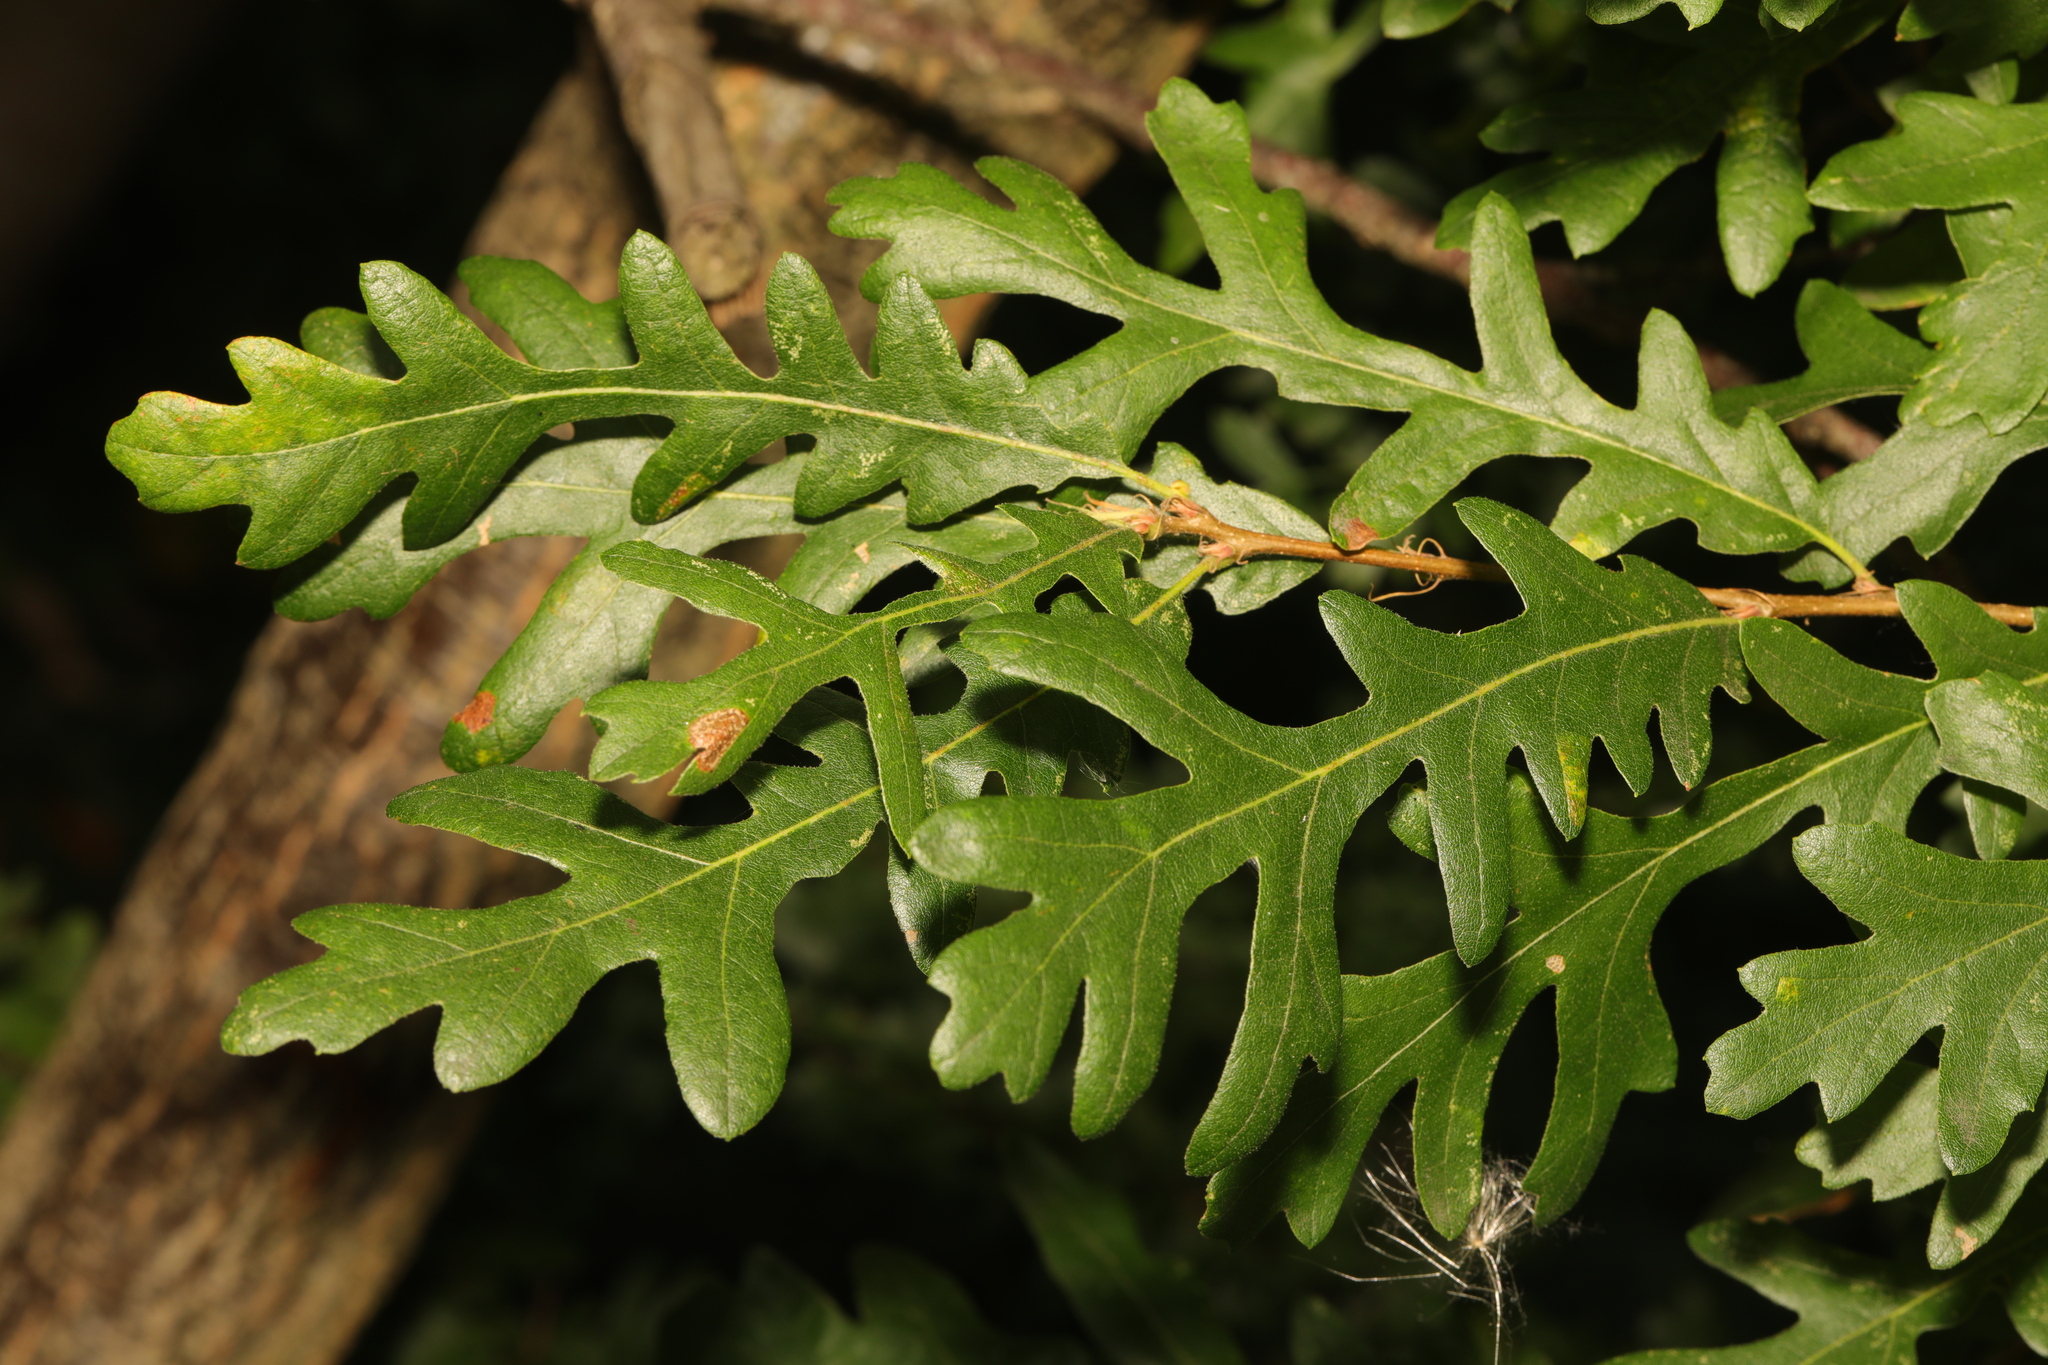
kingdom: Plantae
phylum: Tracheophyta
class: Magnoliopsida
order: Fagales
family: Fagaceae
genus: Quercus
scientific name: Quercus cerris
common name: Turkey oak
